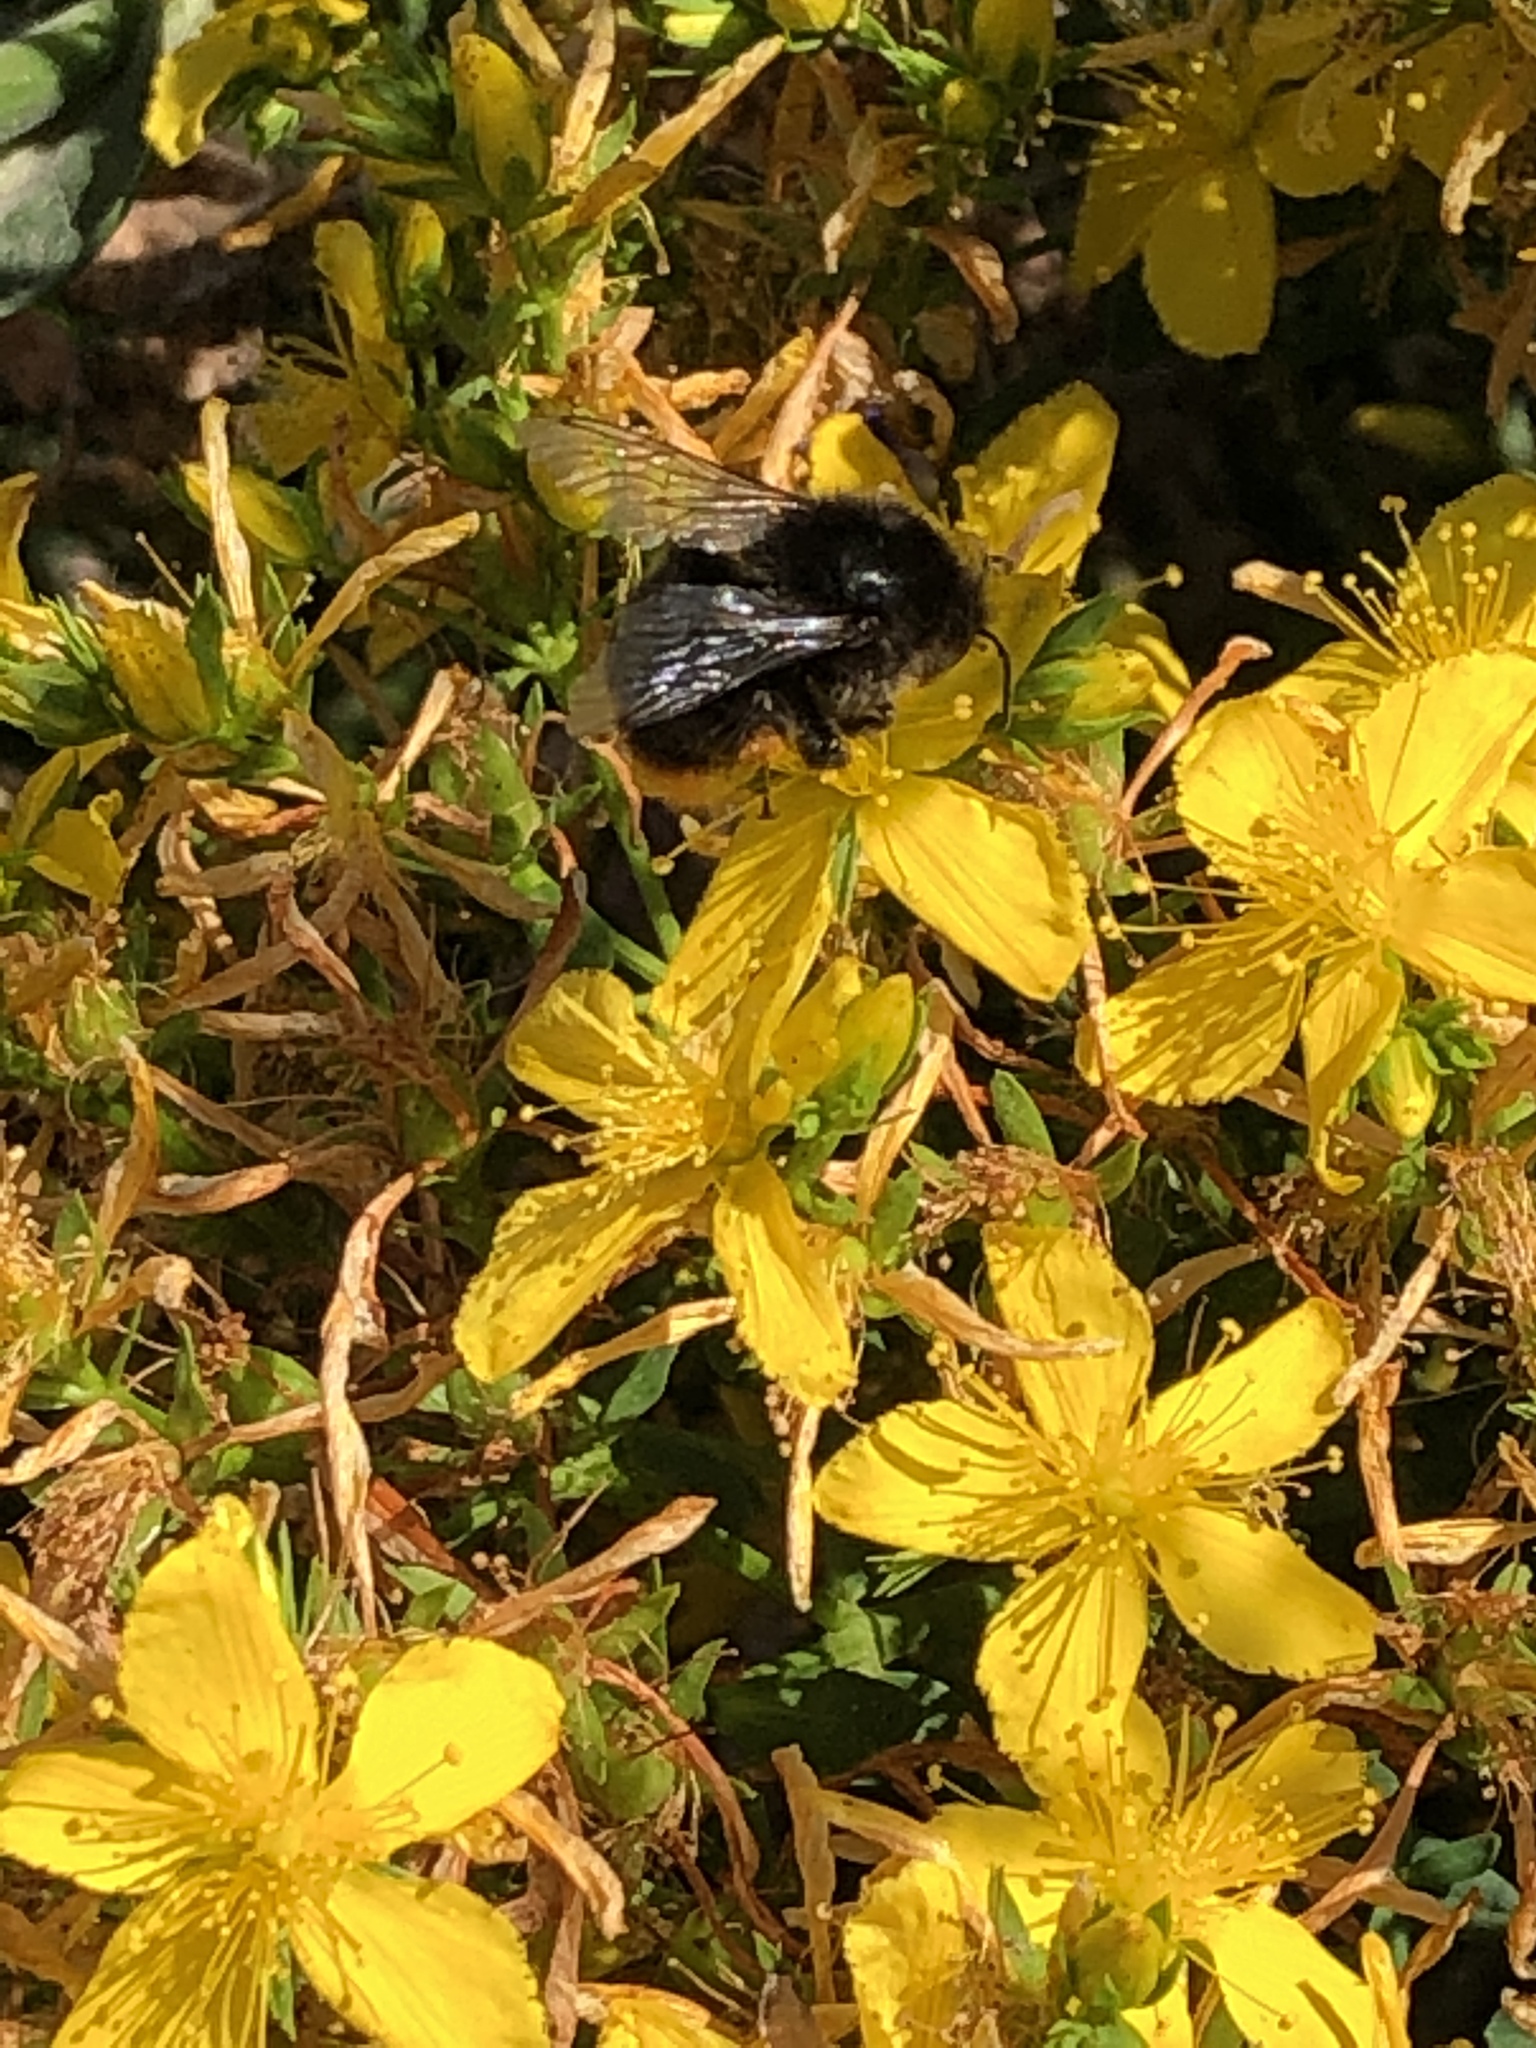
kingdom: Animalia
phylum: Arthropoda
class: Insecta
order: Hymenoptera
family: Apidae
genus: Bombus
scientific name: Bombus lapidarius
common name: Large red-tailed humble-bee
